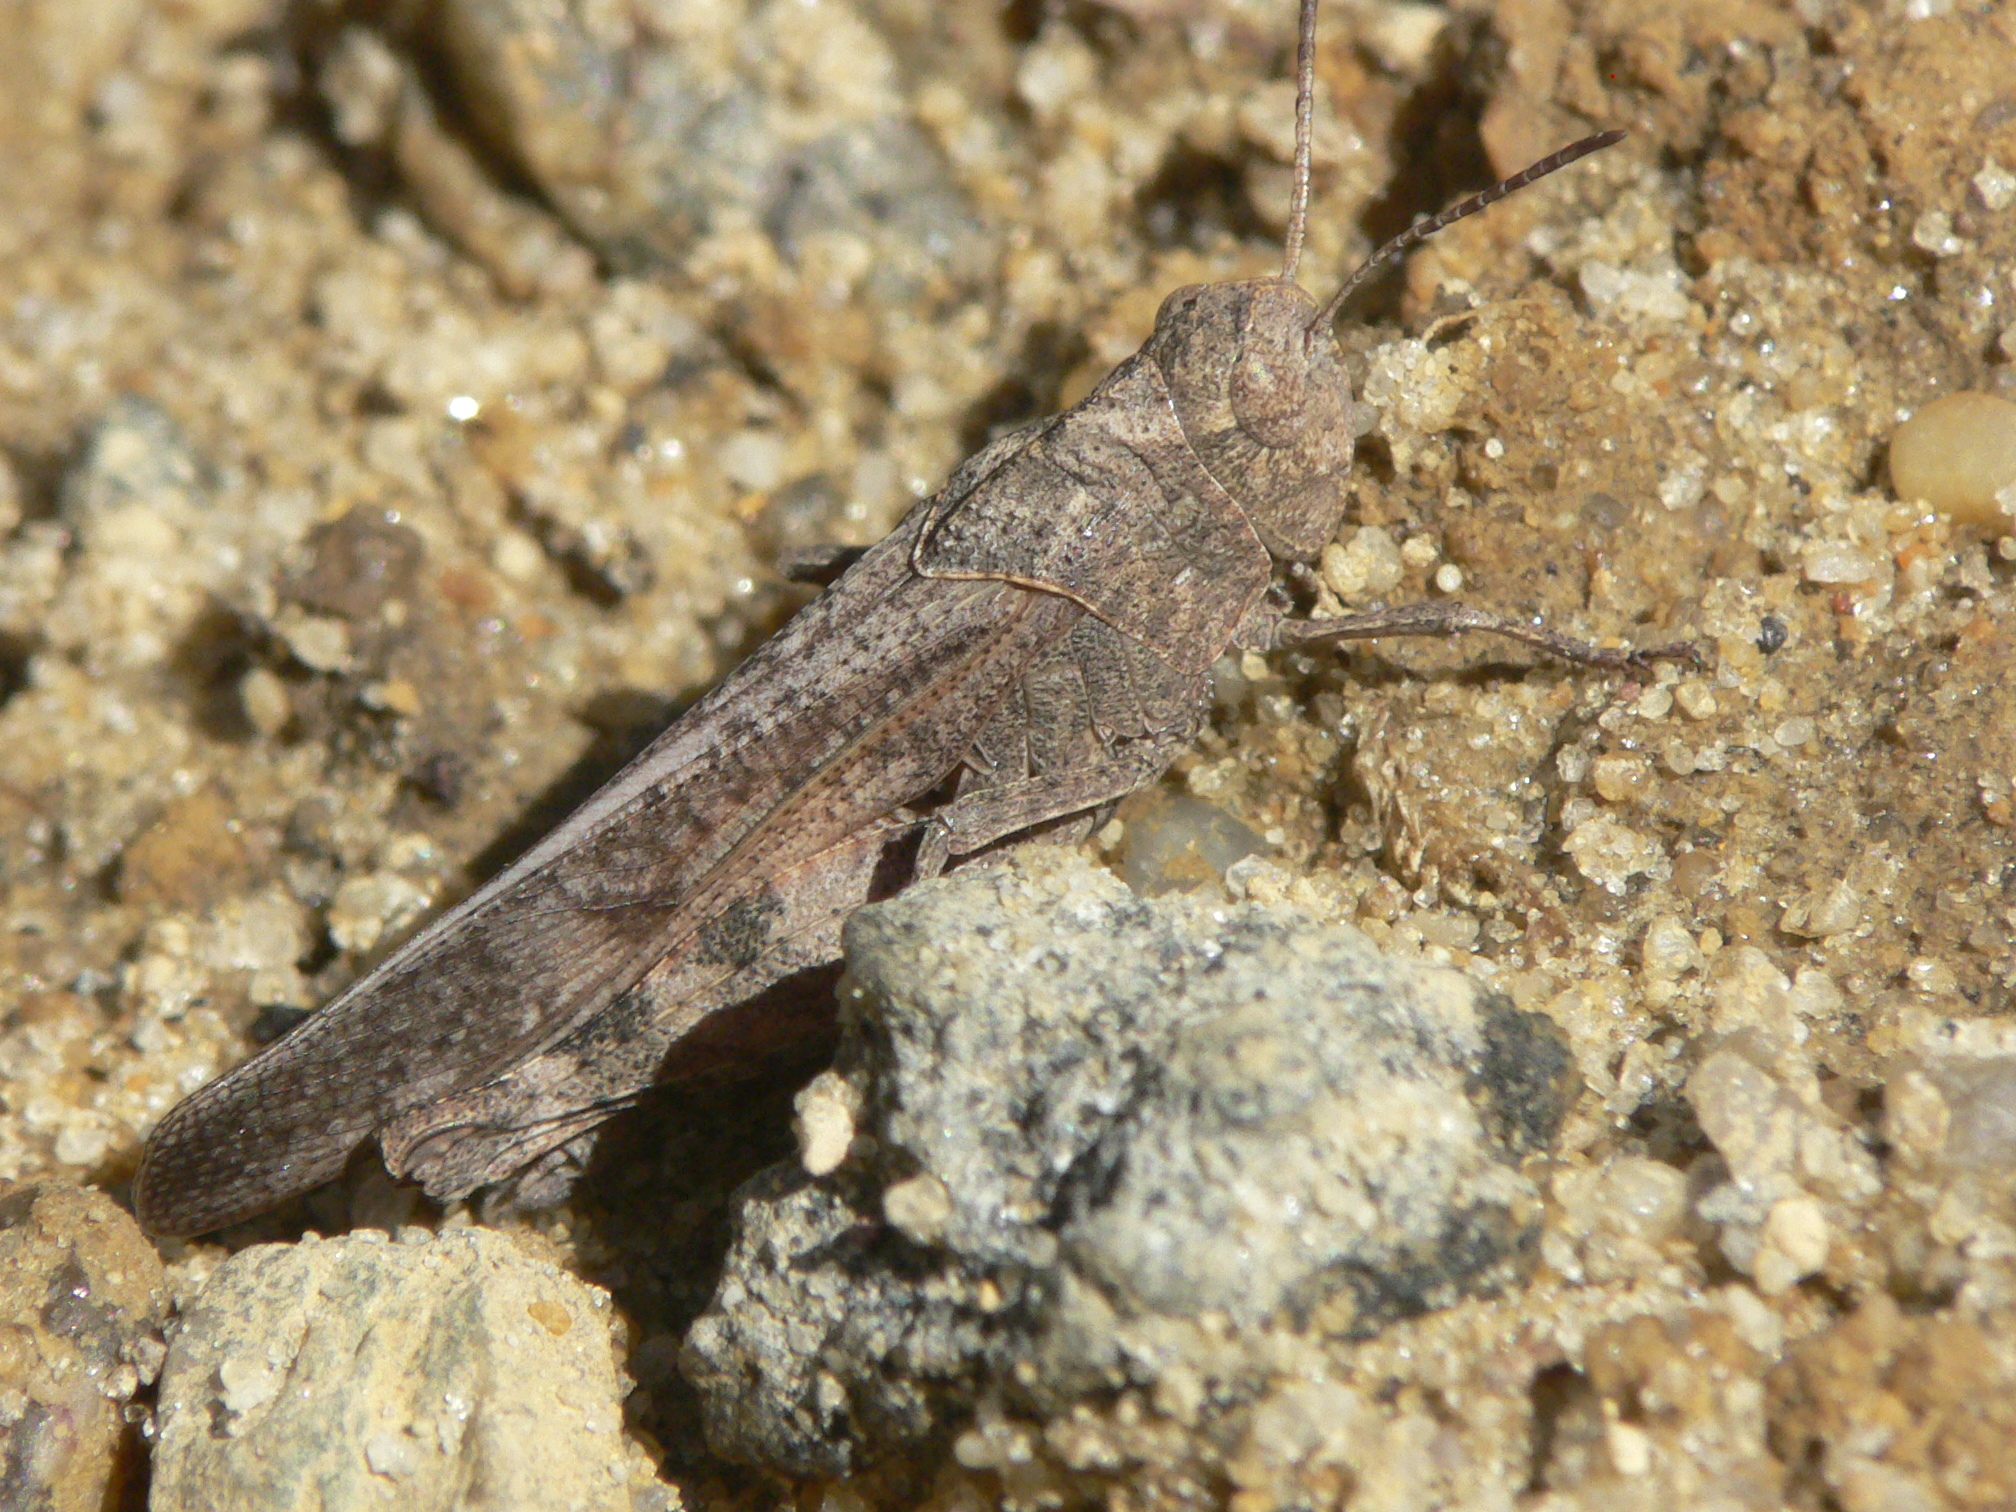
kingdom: Animalia
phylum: Arthropoda
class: Insecta
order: Orthoptera
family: Acrididae
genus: Arphia
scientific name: Arphia sulphurea
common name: Spring yellow-winged locust
